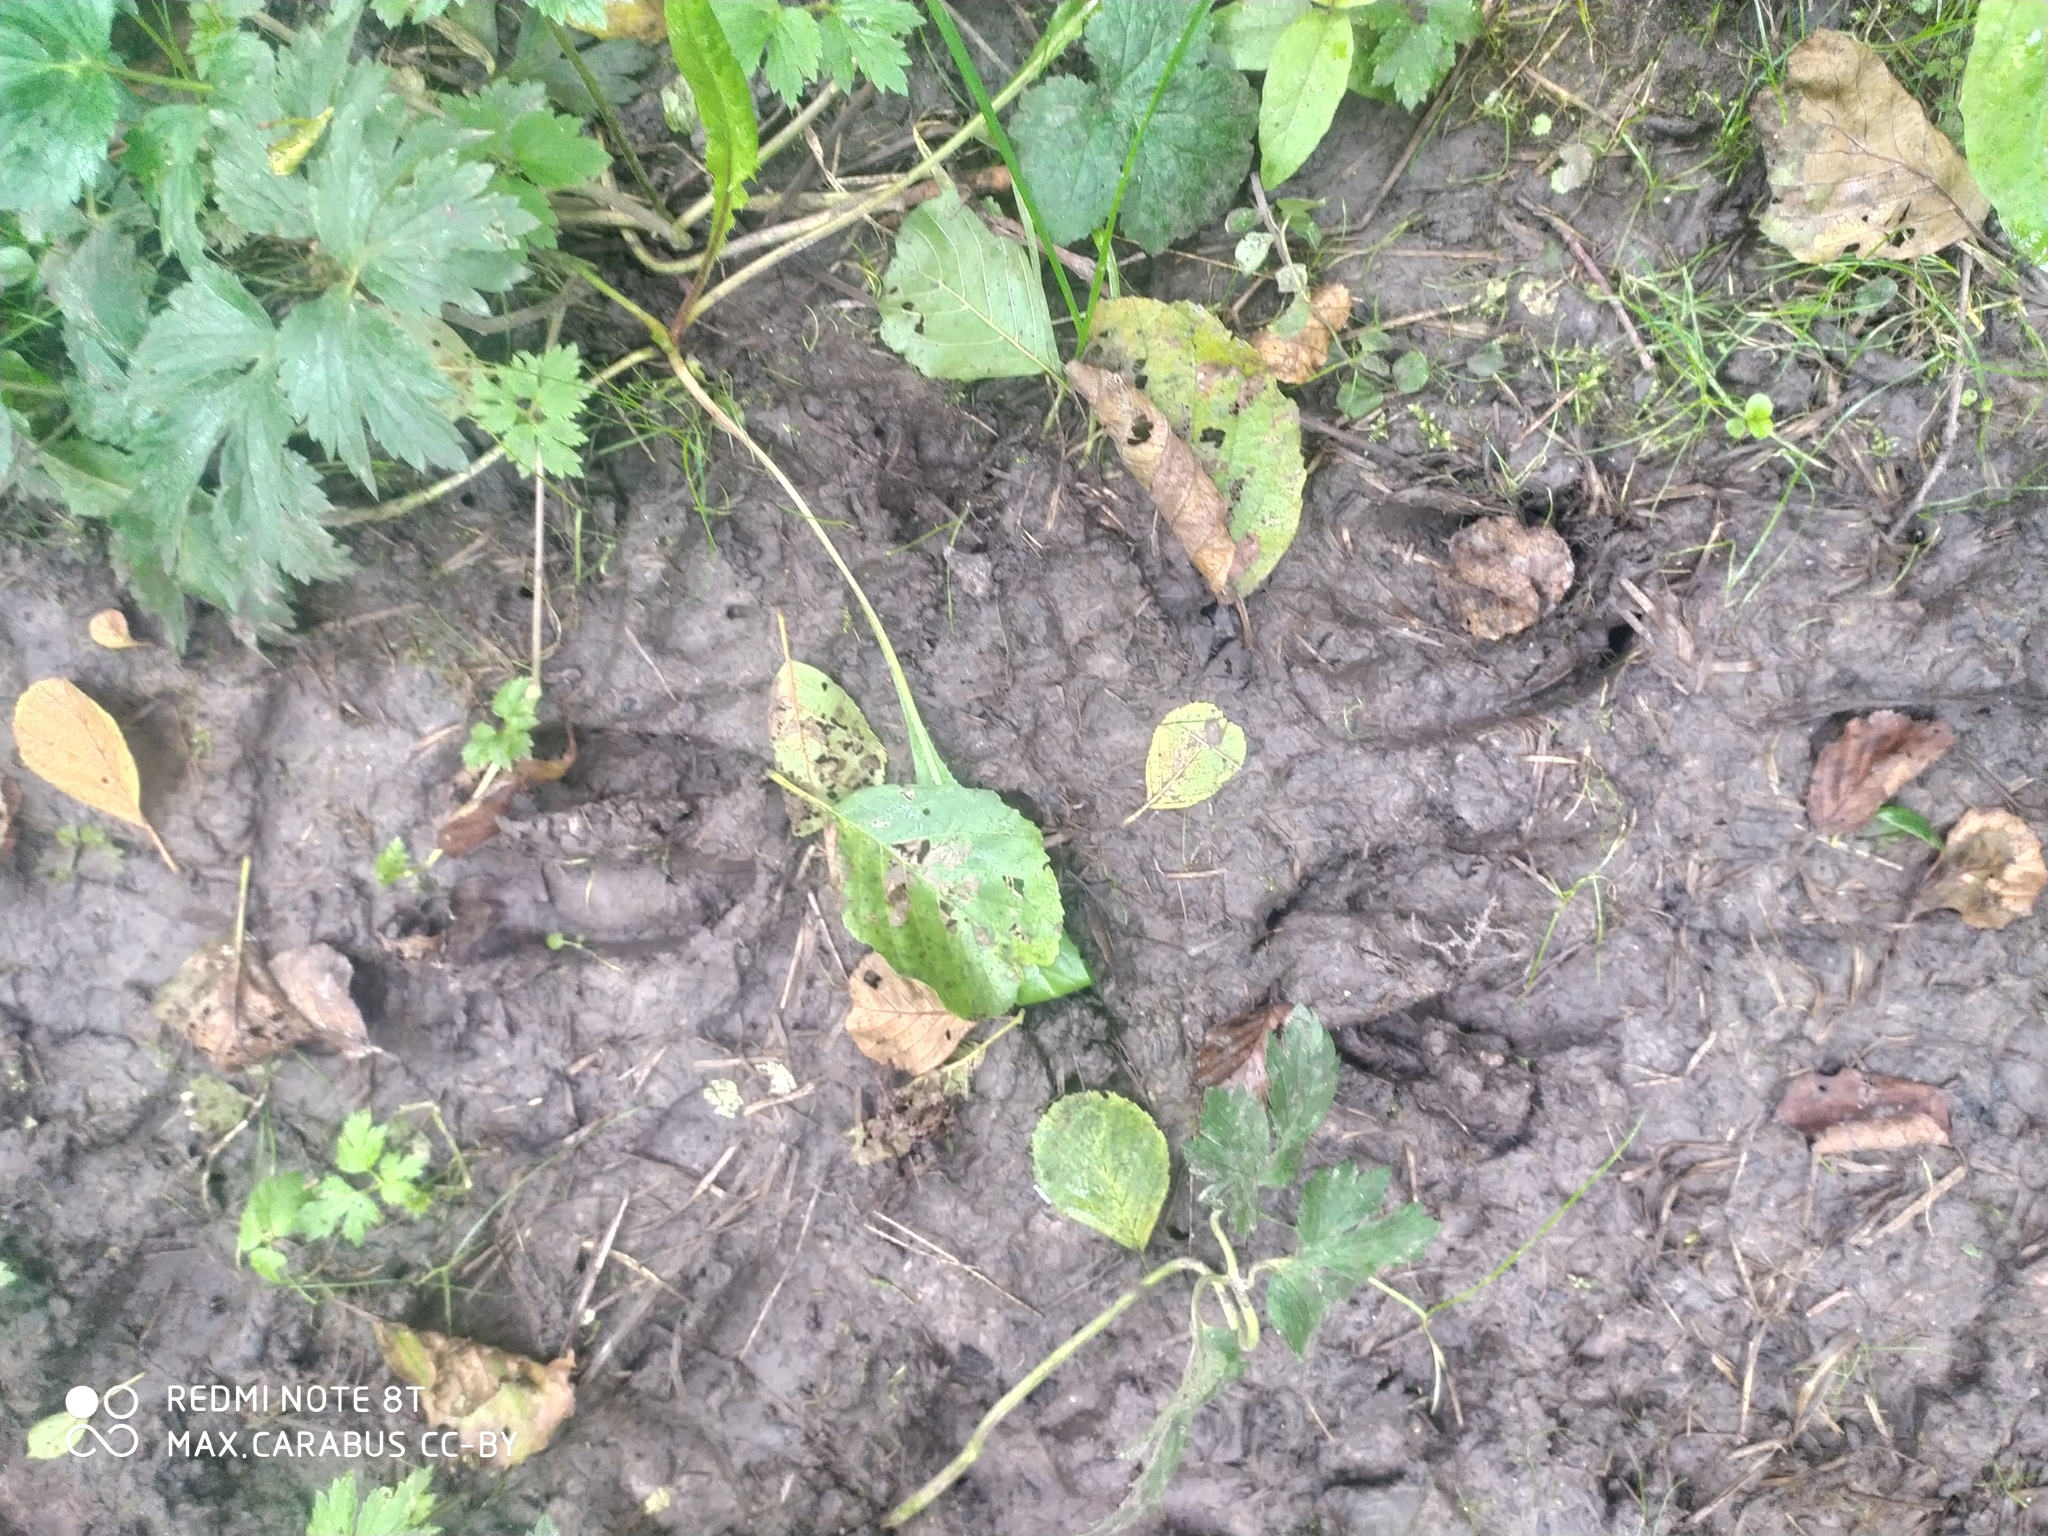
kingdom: Animalia
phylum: Chordata
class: Mammalia
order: Artiodactyla
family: Cervidae
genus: Alces
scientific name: Alces alces
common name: Moose
